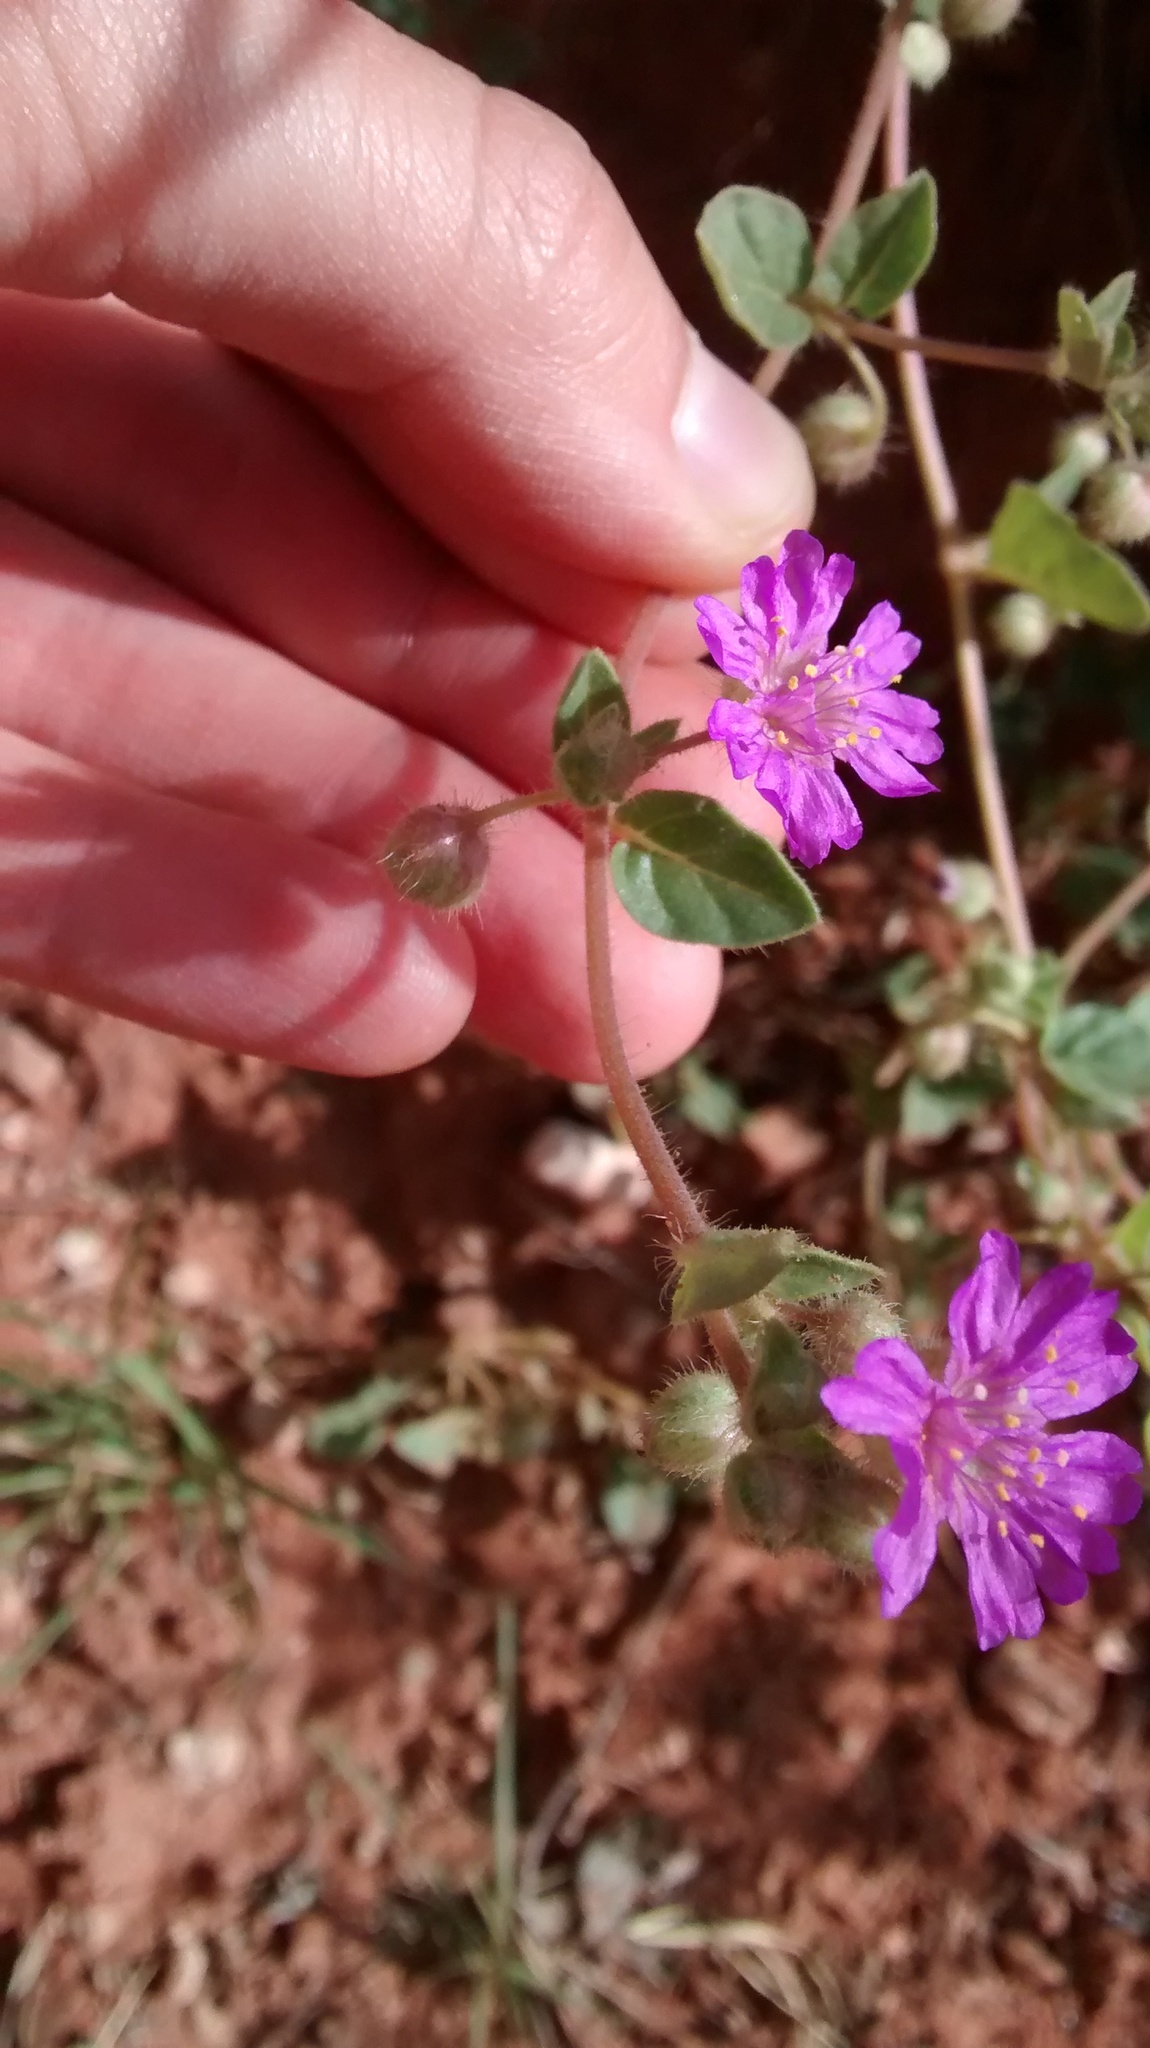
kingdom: Plantae
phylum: Tracheophyta
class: Magnoliopsida
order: Caryophyllales
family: Nyctaginaceae
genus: Allionia
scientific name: Allionia incarnata
